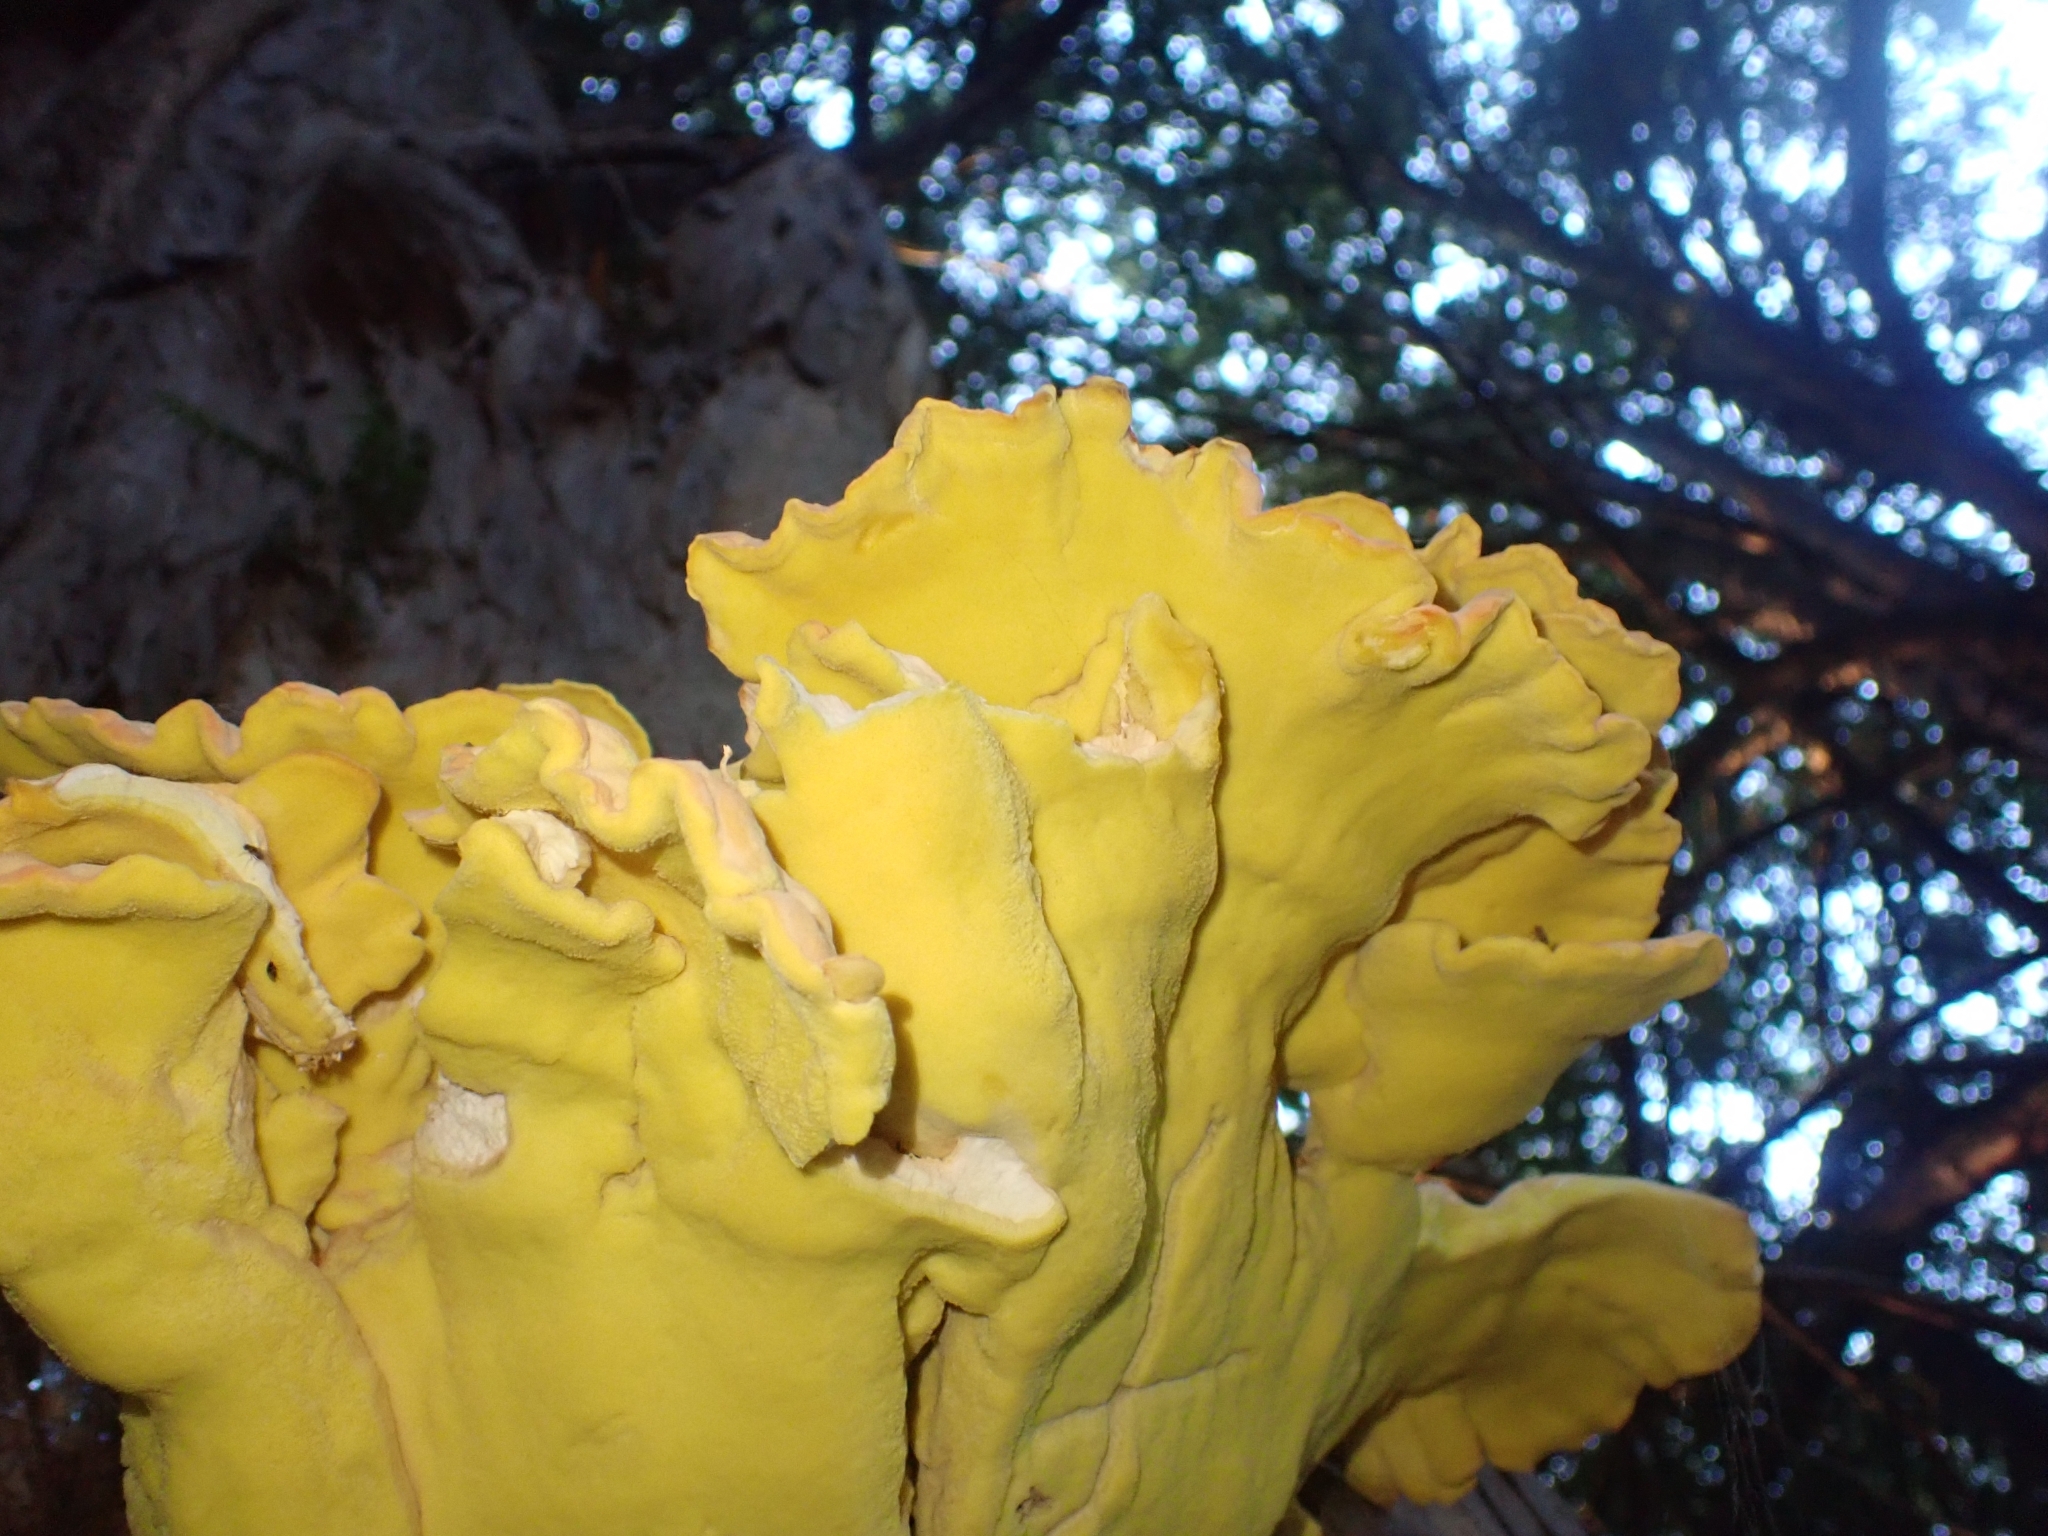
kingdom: Fungi
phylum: Basidiomycota
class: Agaricomycetes
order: Polyporales
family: Laetiporaceae
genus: Laetiporus
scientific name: Laetiporus sulphureus
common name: Chicken of the woods
